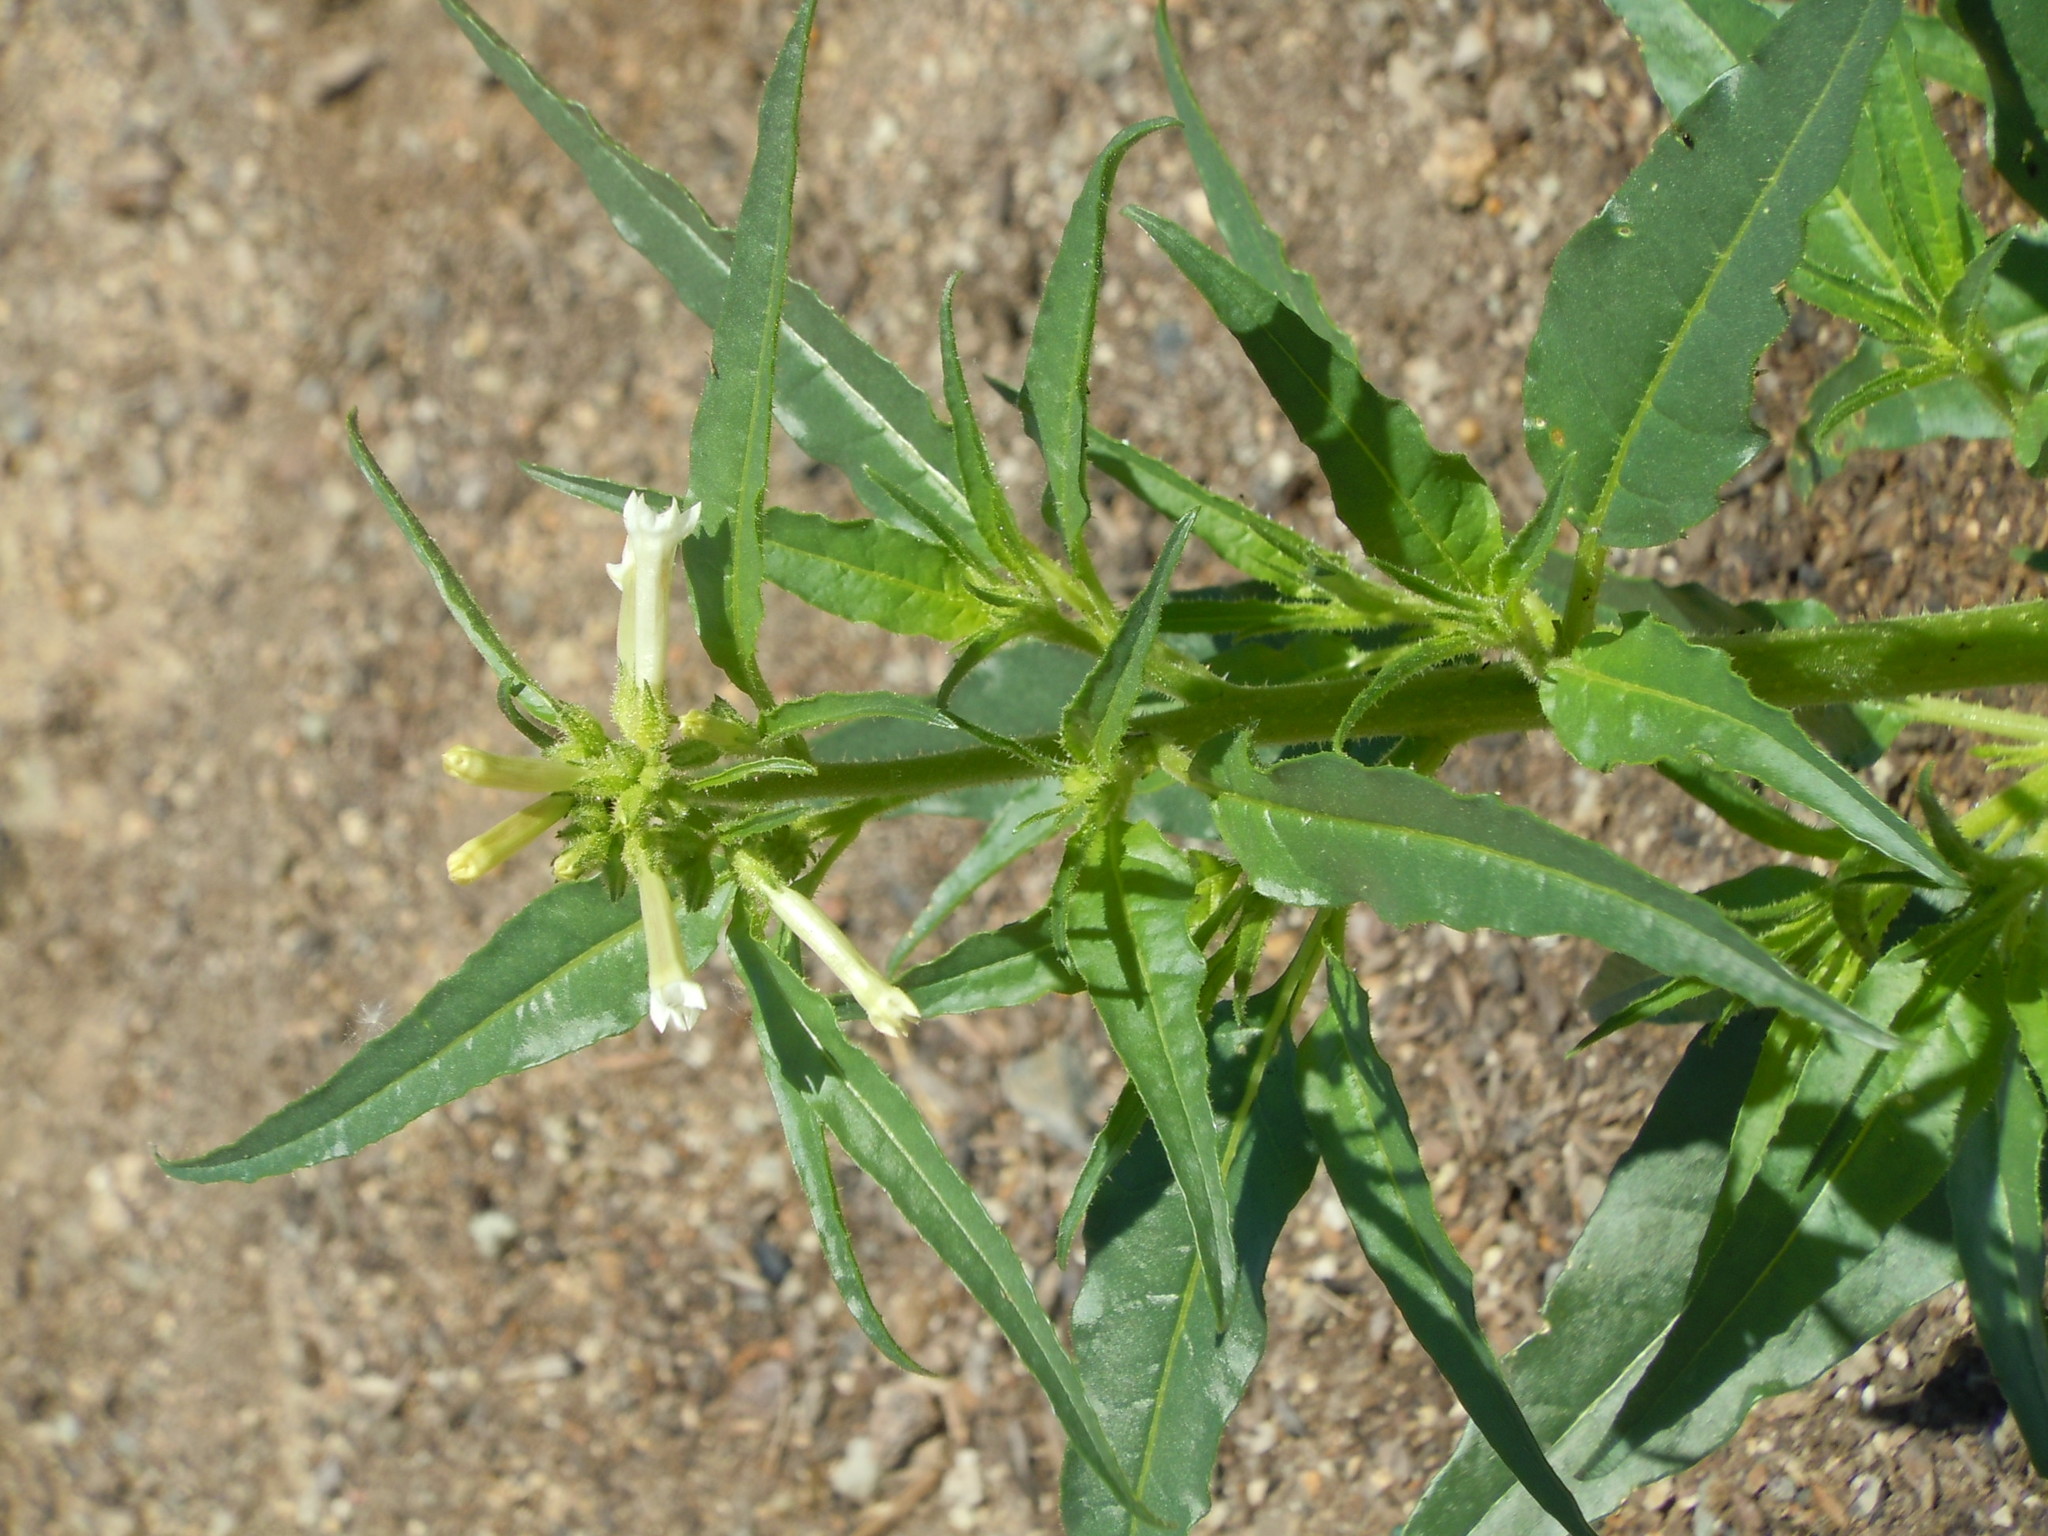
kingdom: Plantae
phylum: Tracheophyta
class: Magnoliopsida
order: Solanales
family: Solanaceae
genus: Nicotiana
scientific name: Nicotiana attenuata
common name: Coyote tobacco
